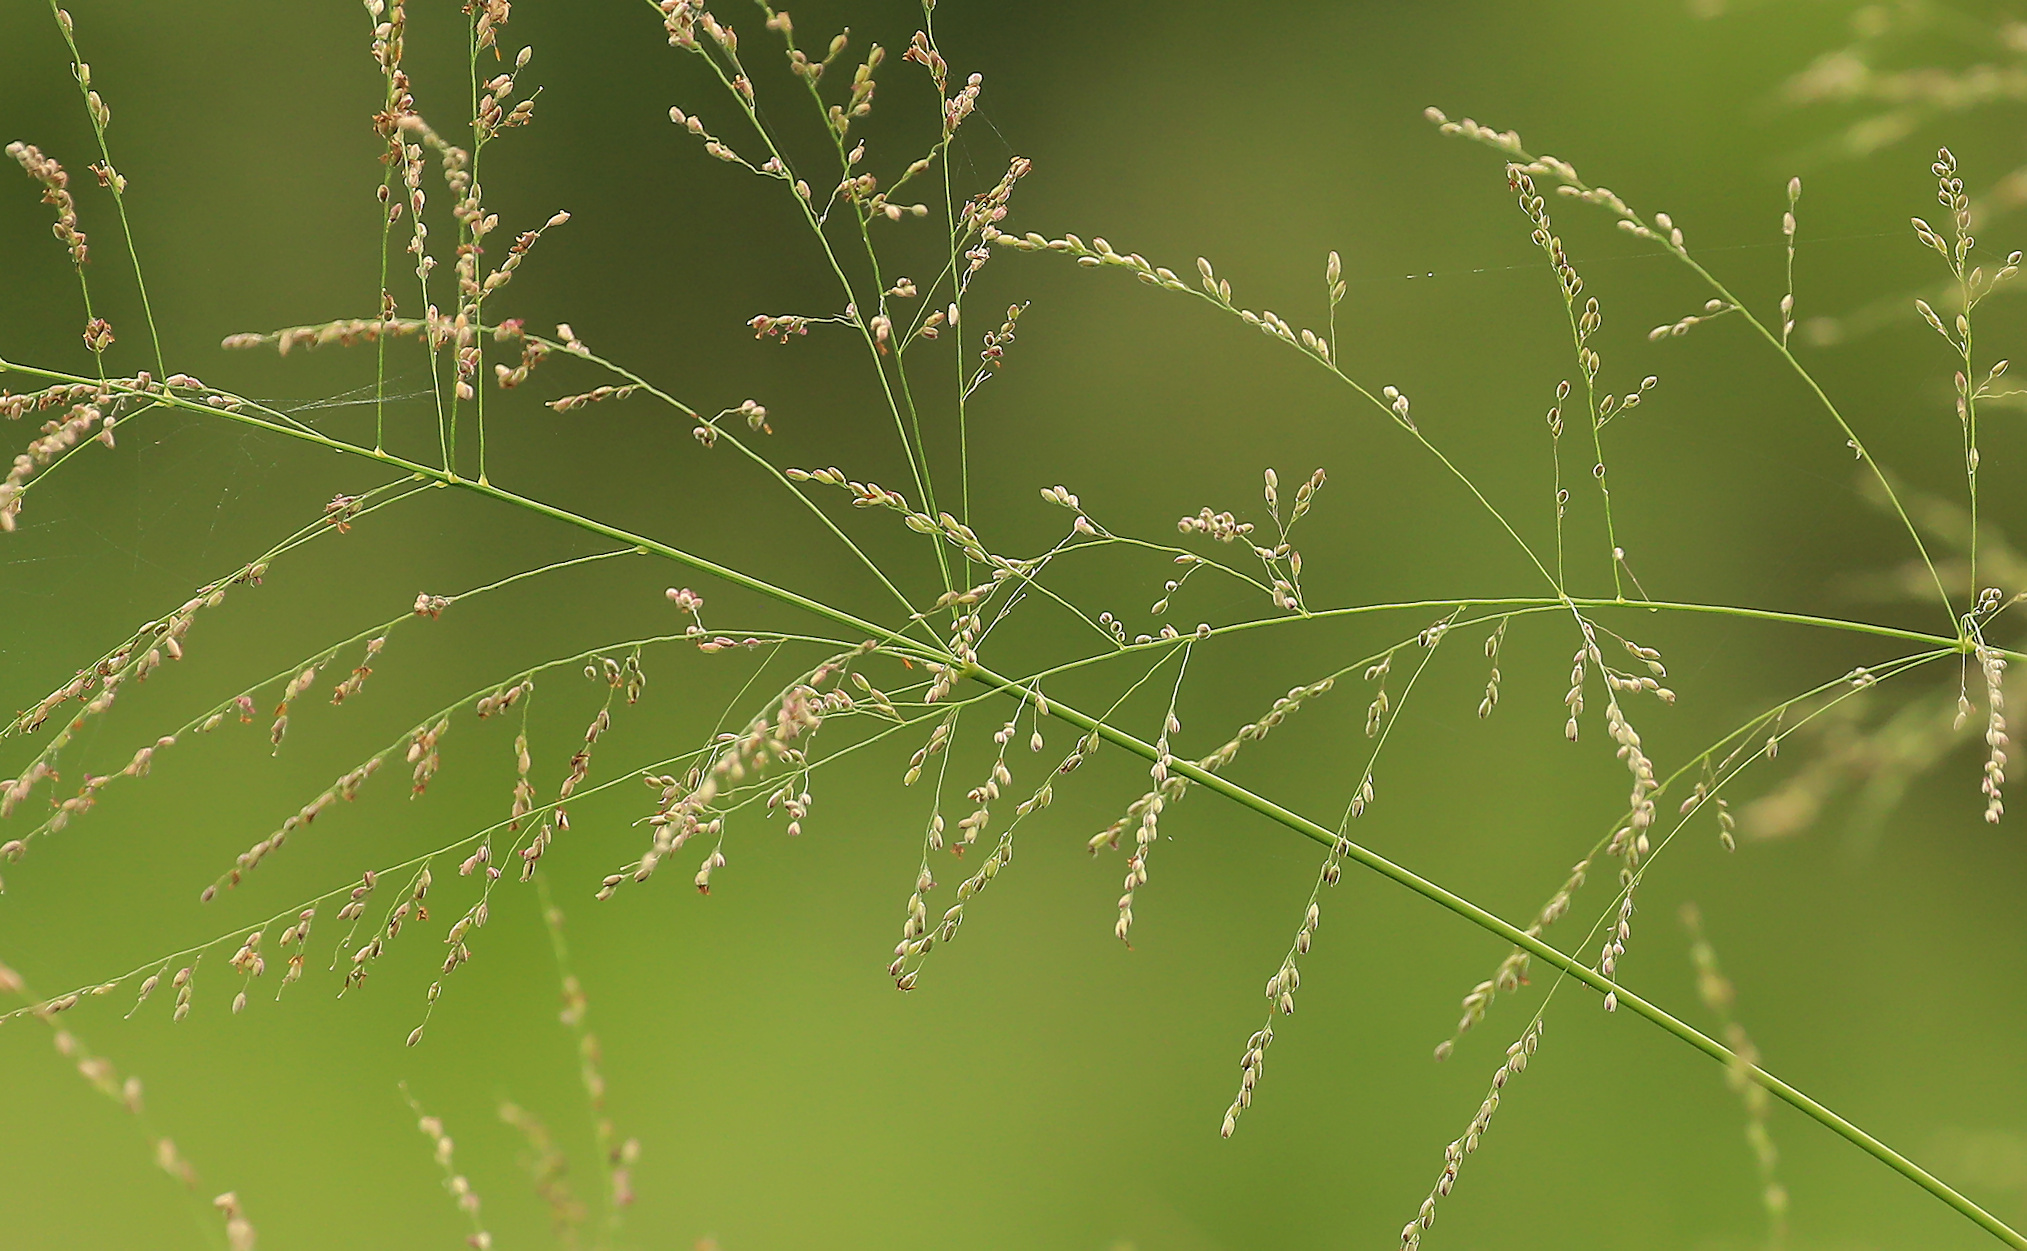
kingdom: Plantae
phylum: Tracheophyta
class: Liliopsida
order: Poales
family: Poaceae
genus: Megathyrsus
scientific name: Megathyrsus maximus
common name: Guineagrass
